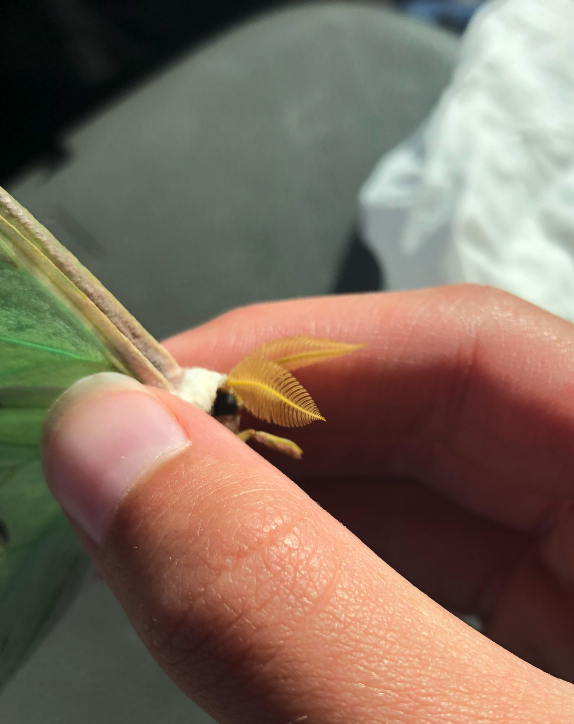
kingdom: Animalia
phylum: Arthropoda
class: Insecta
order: Lepidoptera
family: Saturniidae
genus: Actias
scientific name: Actias luna
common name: Luna moth
